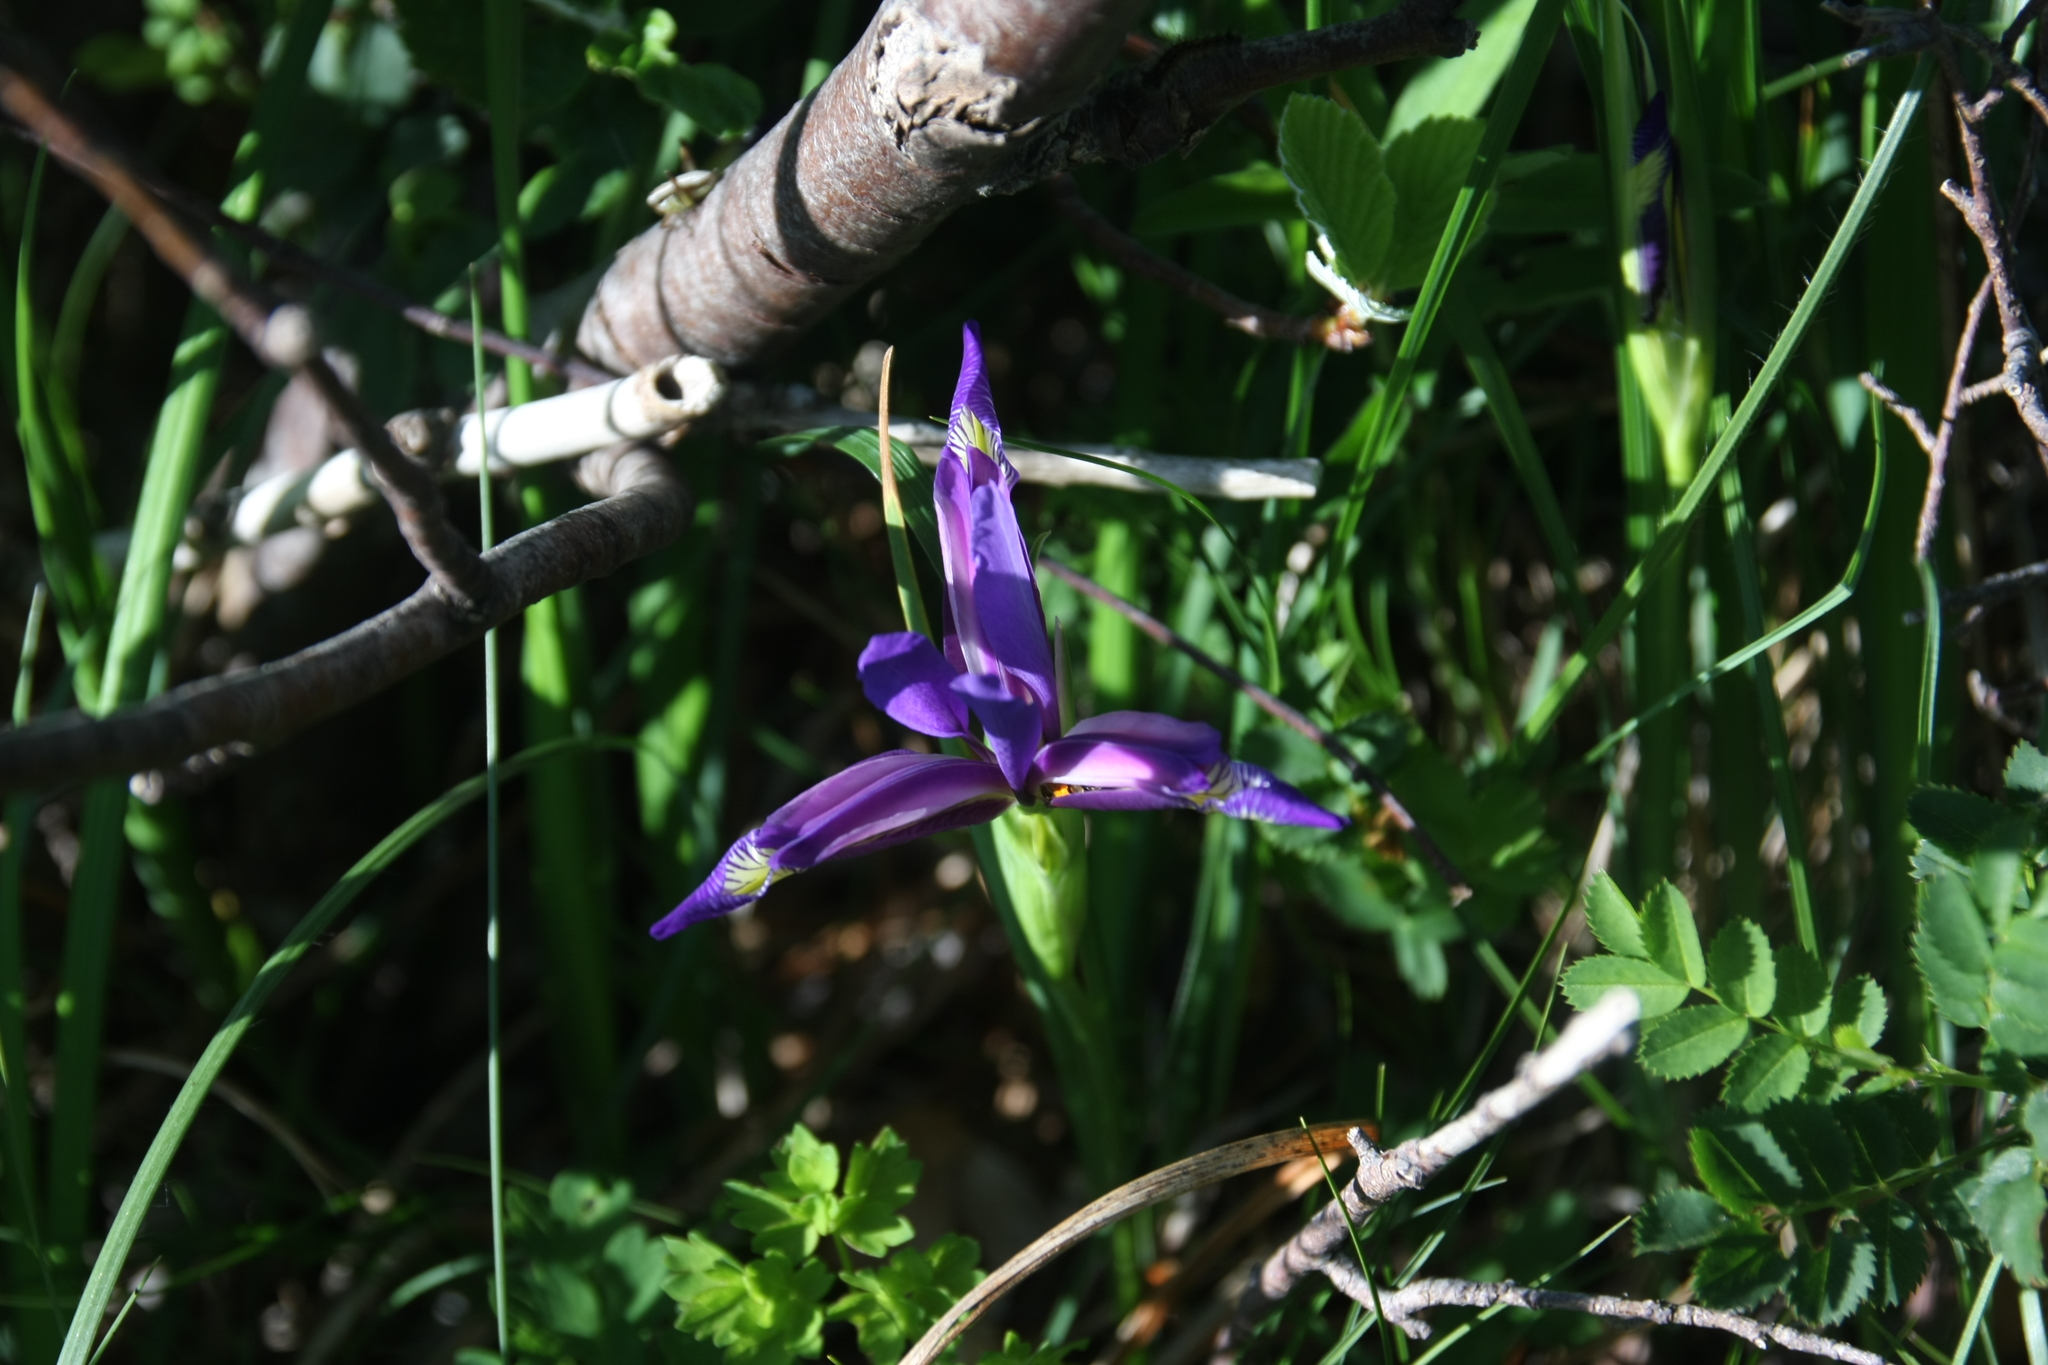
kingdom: Plantae
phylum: Tracheophyta
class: Liliopsida
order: Asparagales
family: Iridaceae
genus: Iris
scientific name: Iris graminea
